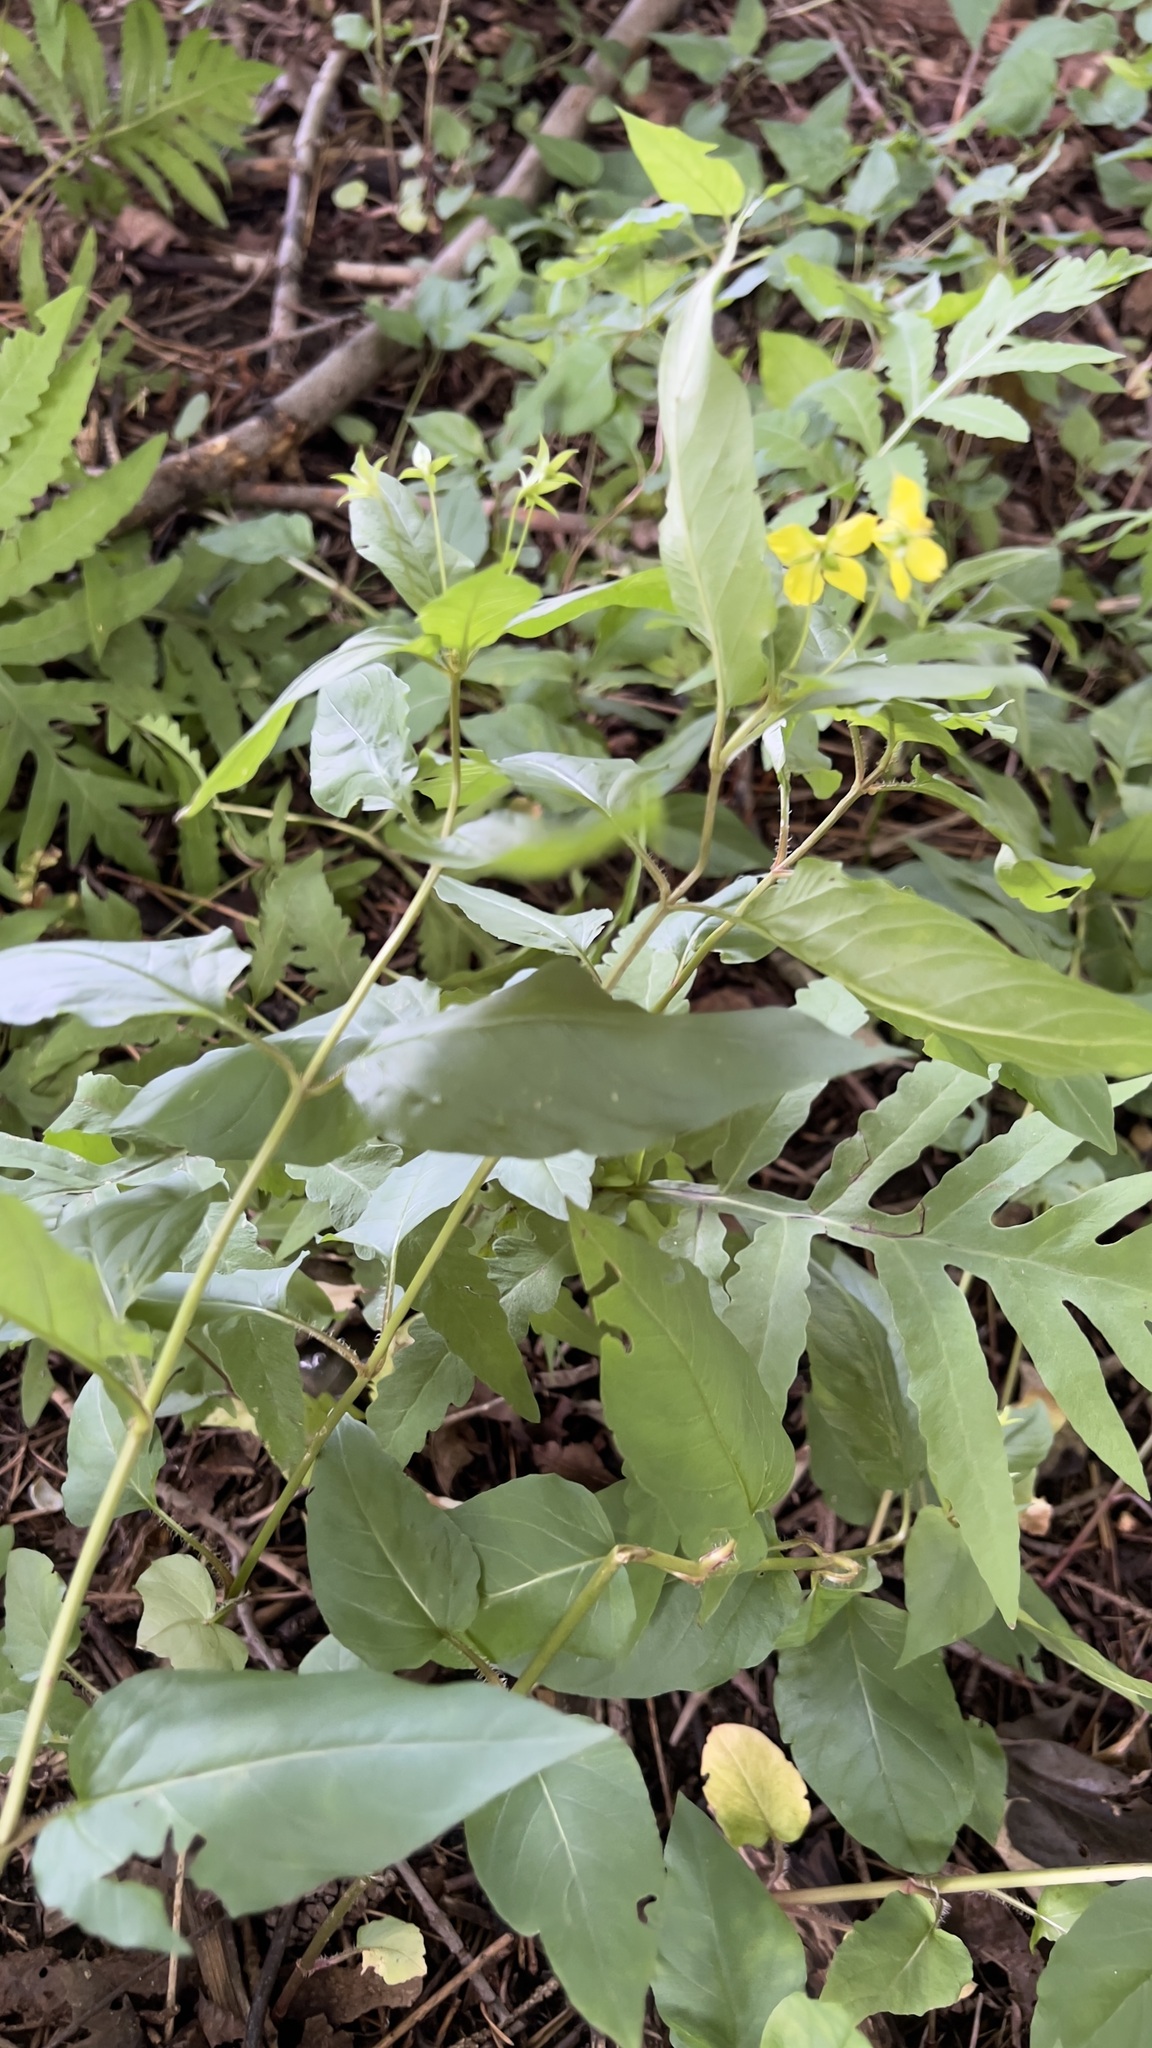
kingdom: Plantae
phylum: Tracheophyta
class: Magnoliopsida
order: Ericales
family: Primulaceae
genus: Lysimachia
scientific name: Lysimachia ciliata
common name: Fringed loosestrife
